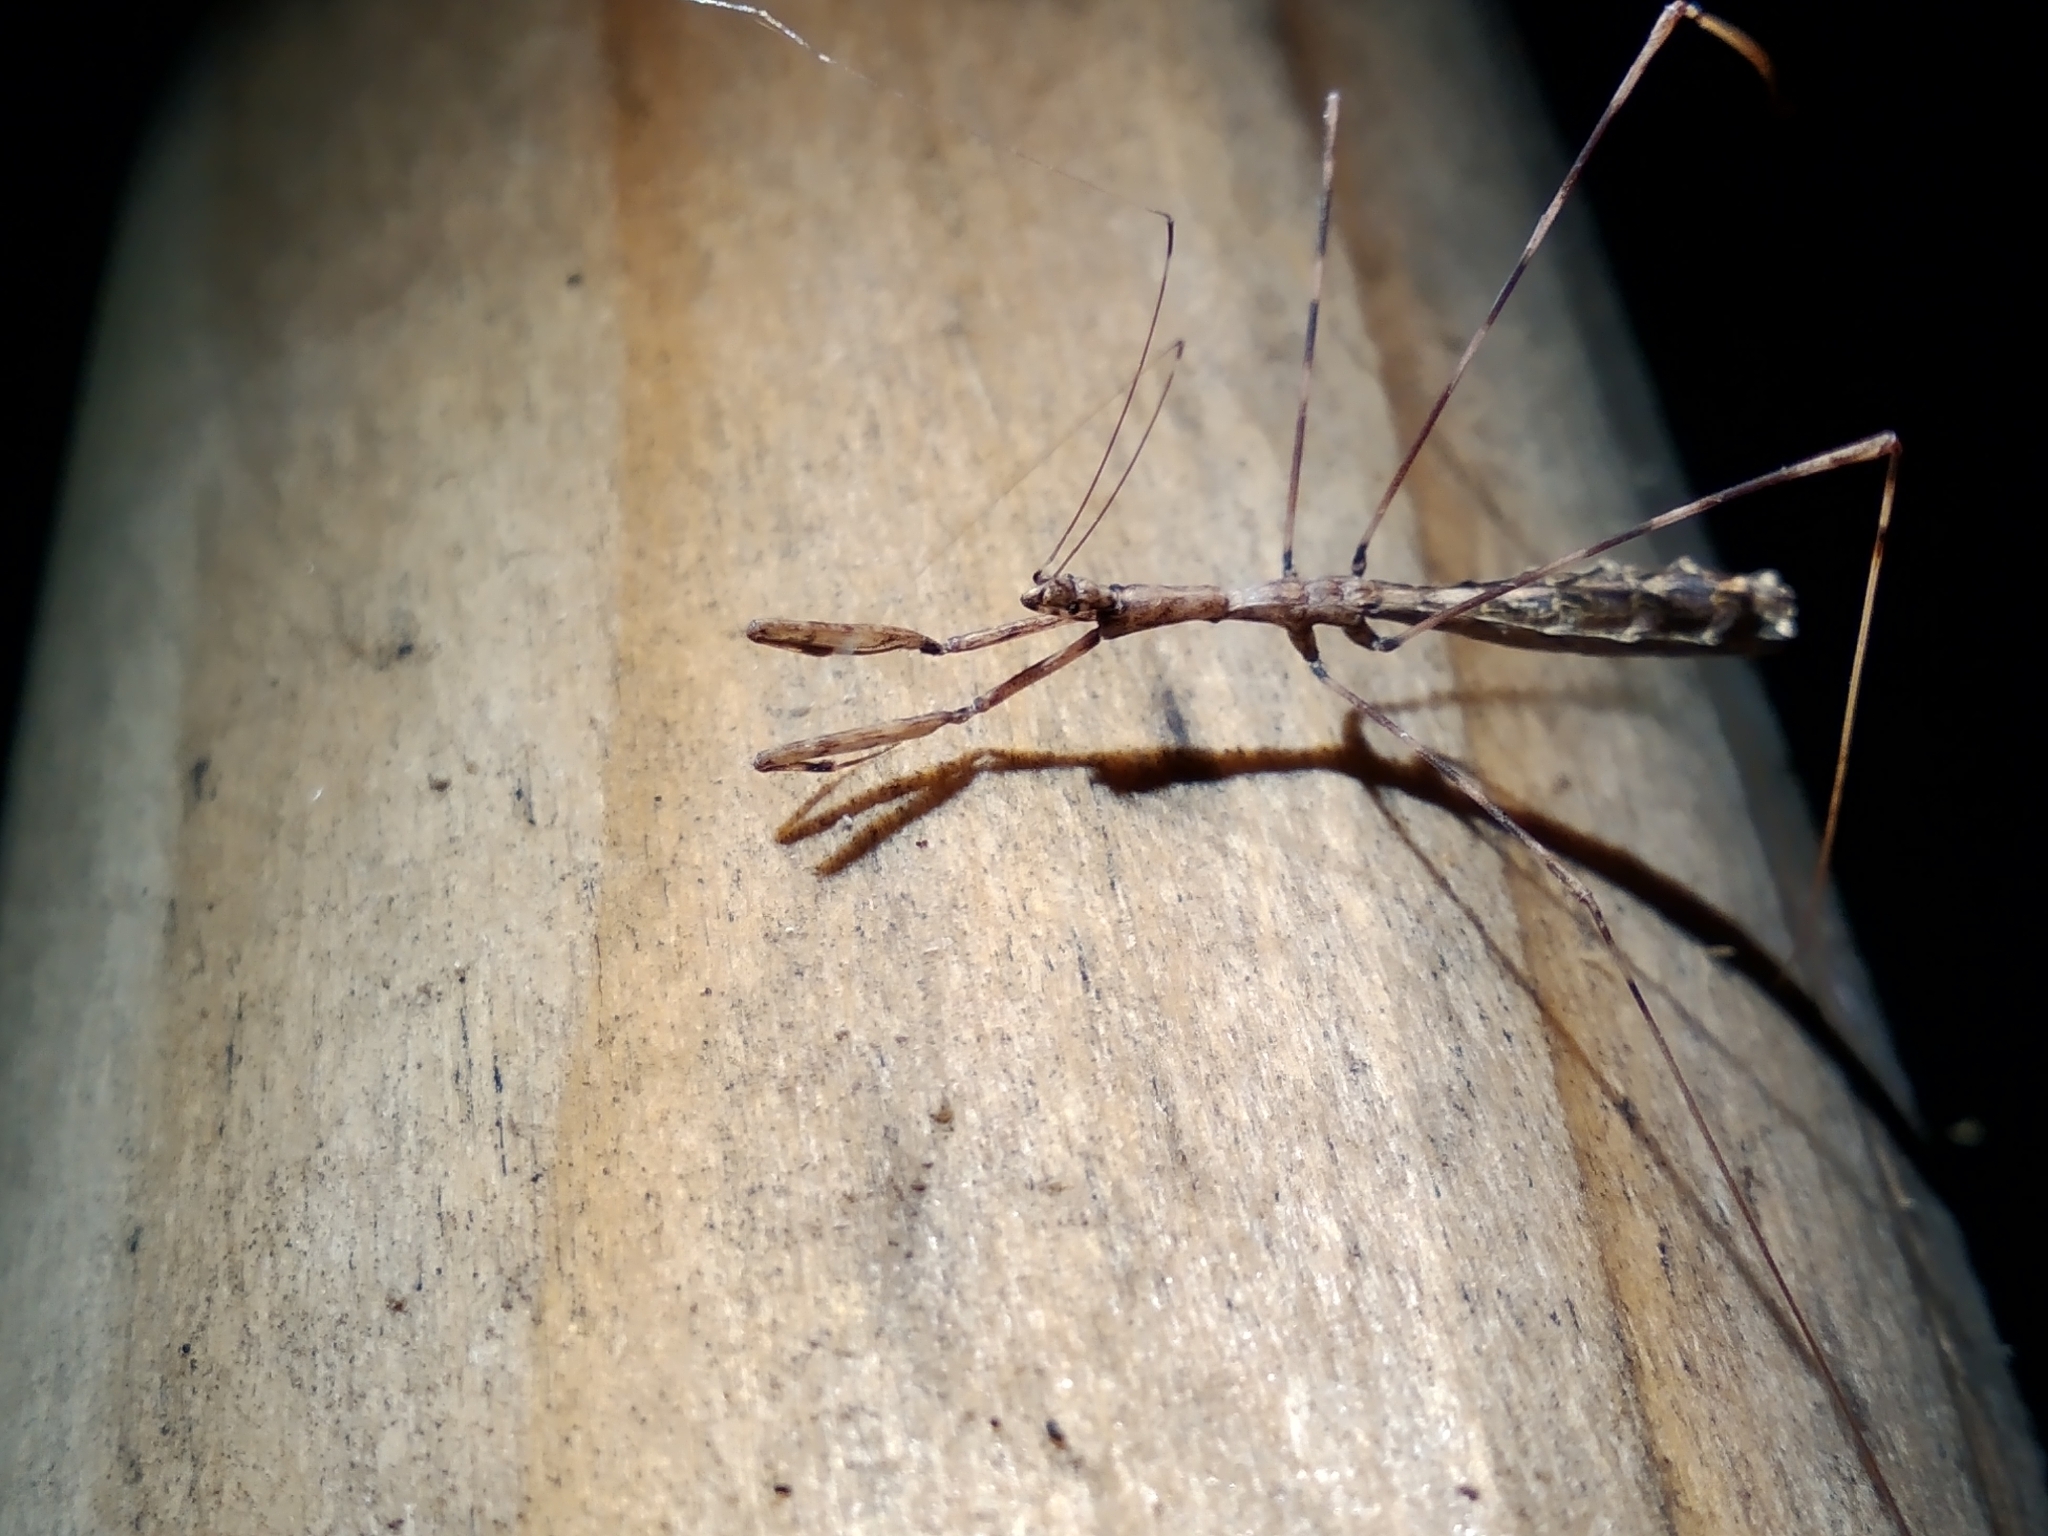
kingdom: Animalia
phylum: Arthropoda
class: Insecta
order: Hemiptera
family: Reduviidae
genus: Ploiaria
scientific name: Ploiaria antipodum
